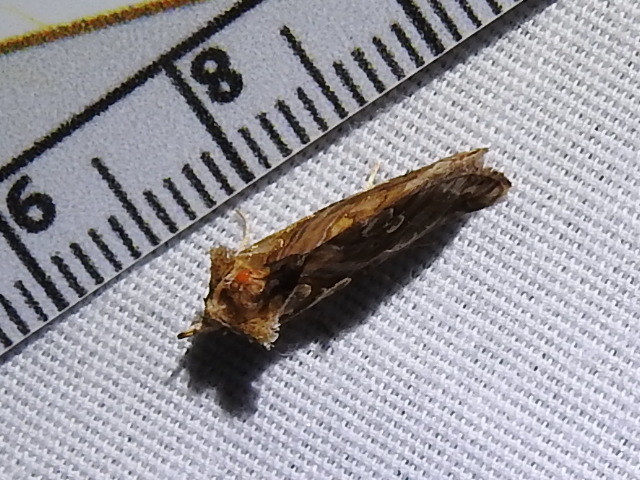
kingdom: Animalia
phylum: Arthropoda
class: Insecta
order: Lepidoptera
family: Erebidae
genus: Plusiodonta
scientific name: Plusiodonta compressipalpis
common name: Moonseed moth
